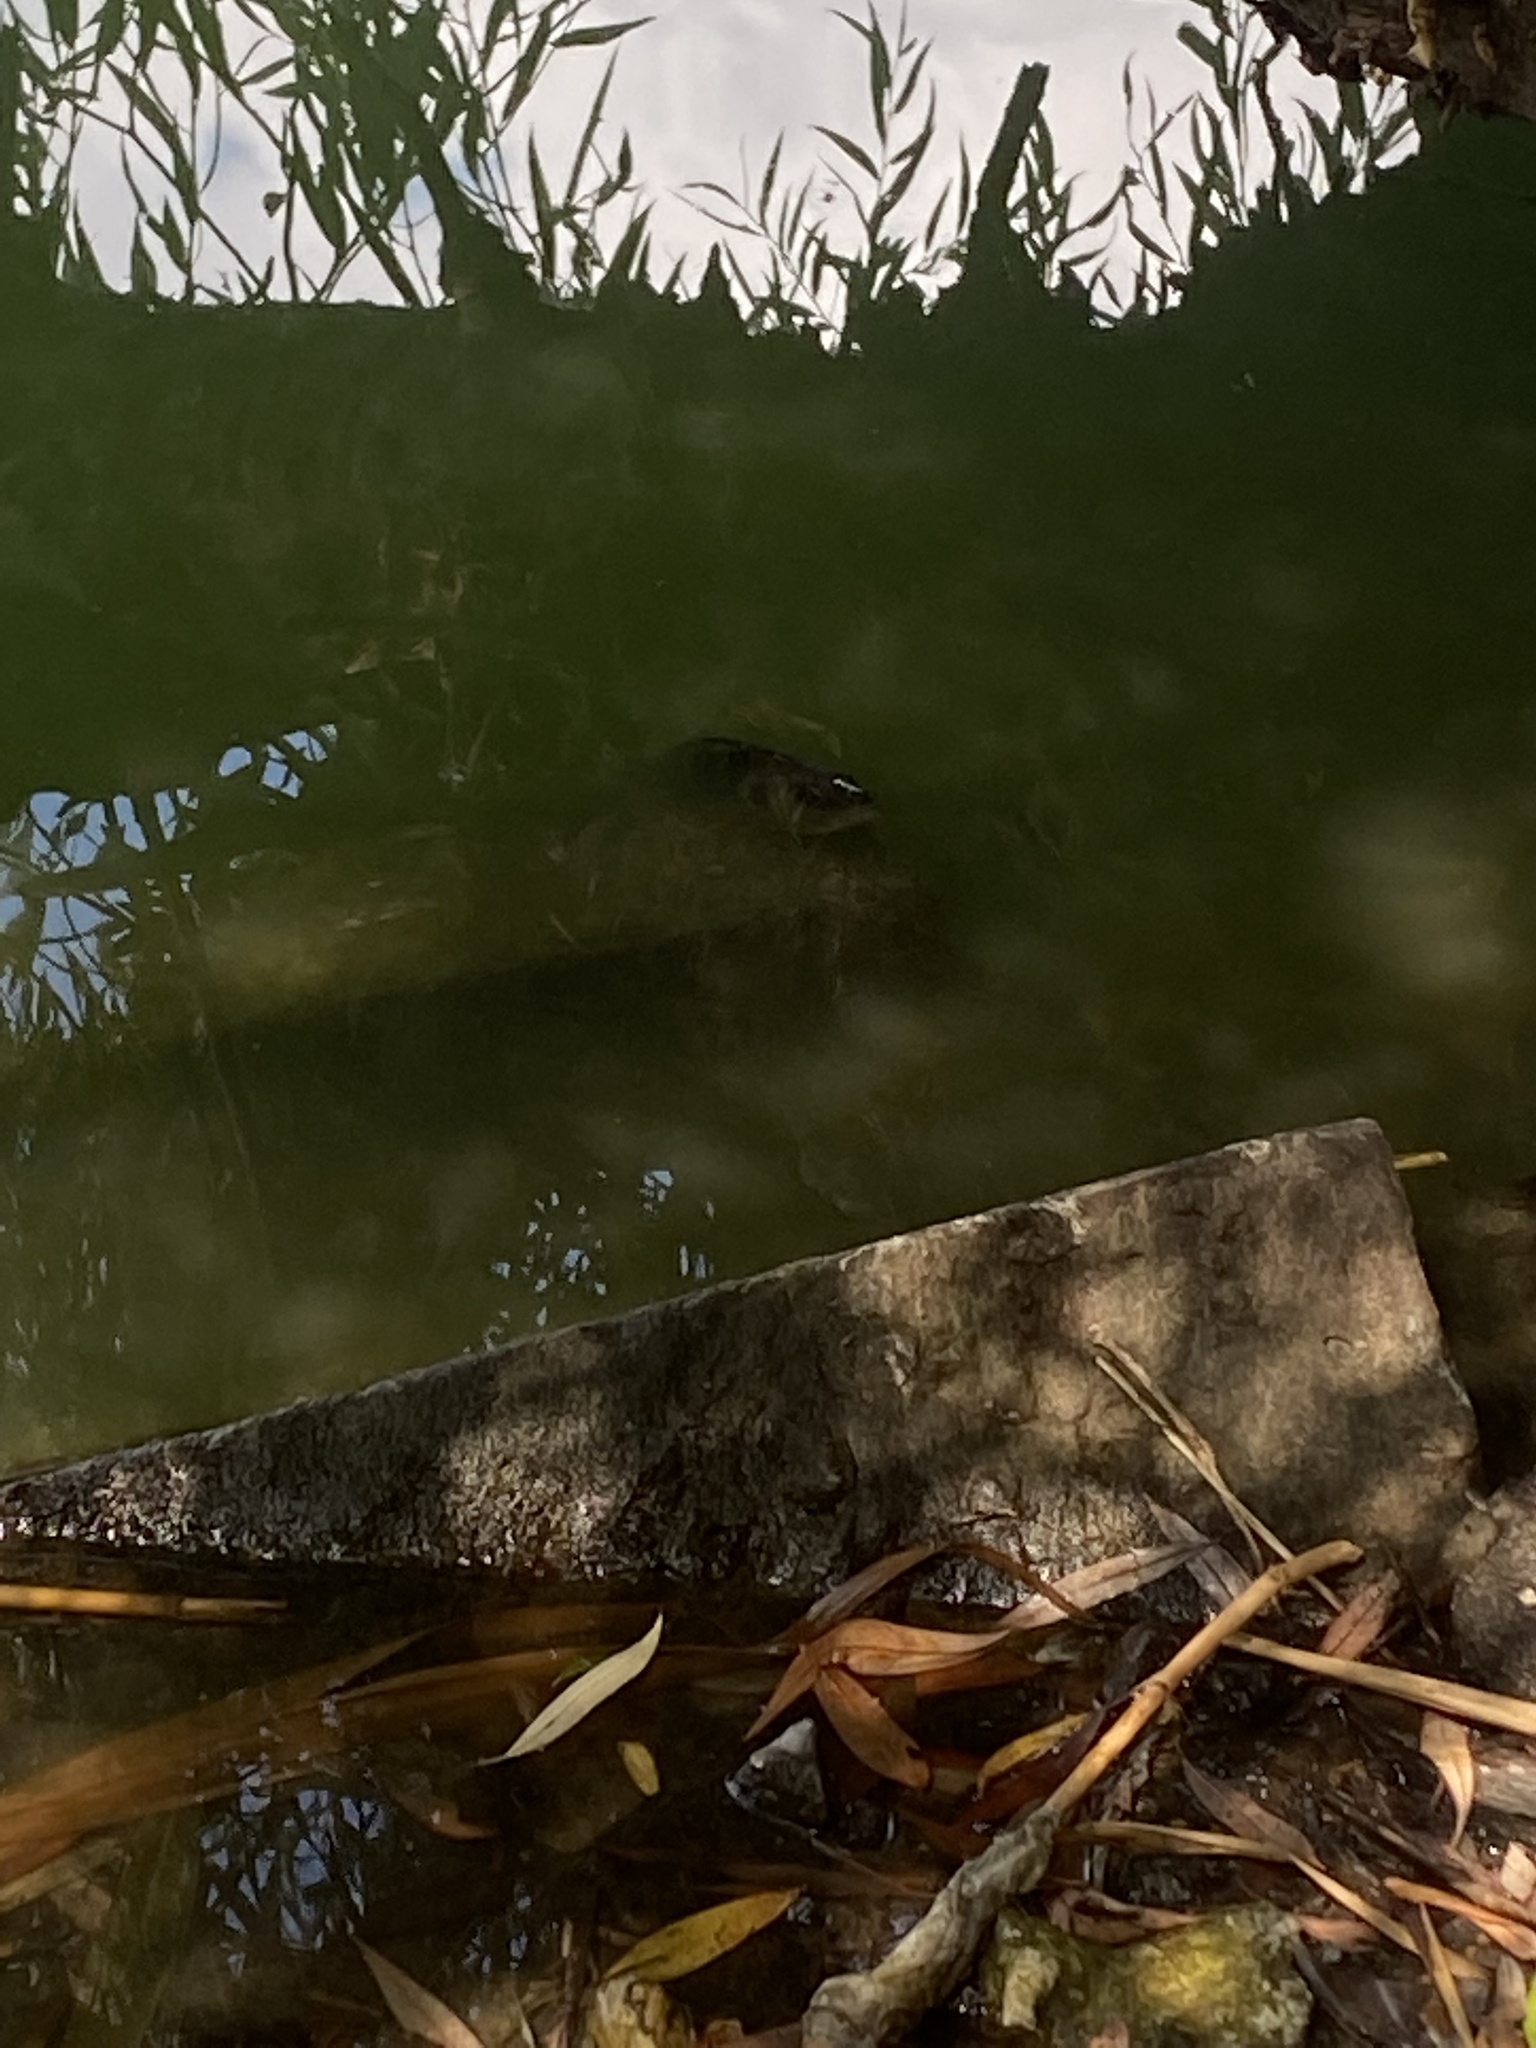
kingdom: Animalia
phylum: Chordata
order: Perciformes
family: Percidae
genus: Perca
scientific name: Perca fluviatilis
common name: Perch
